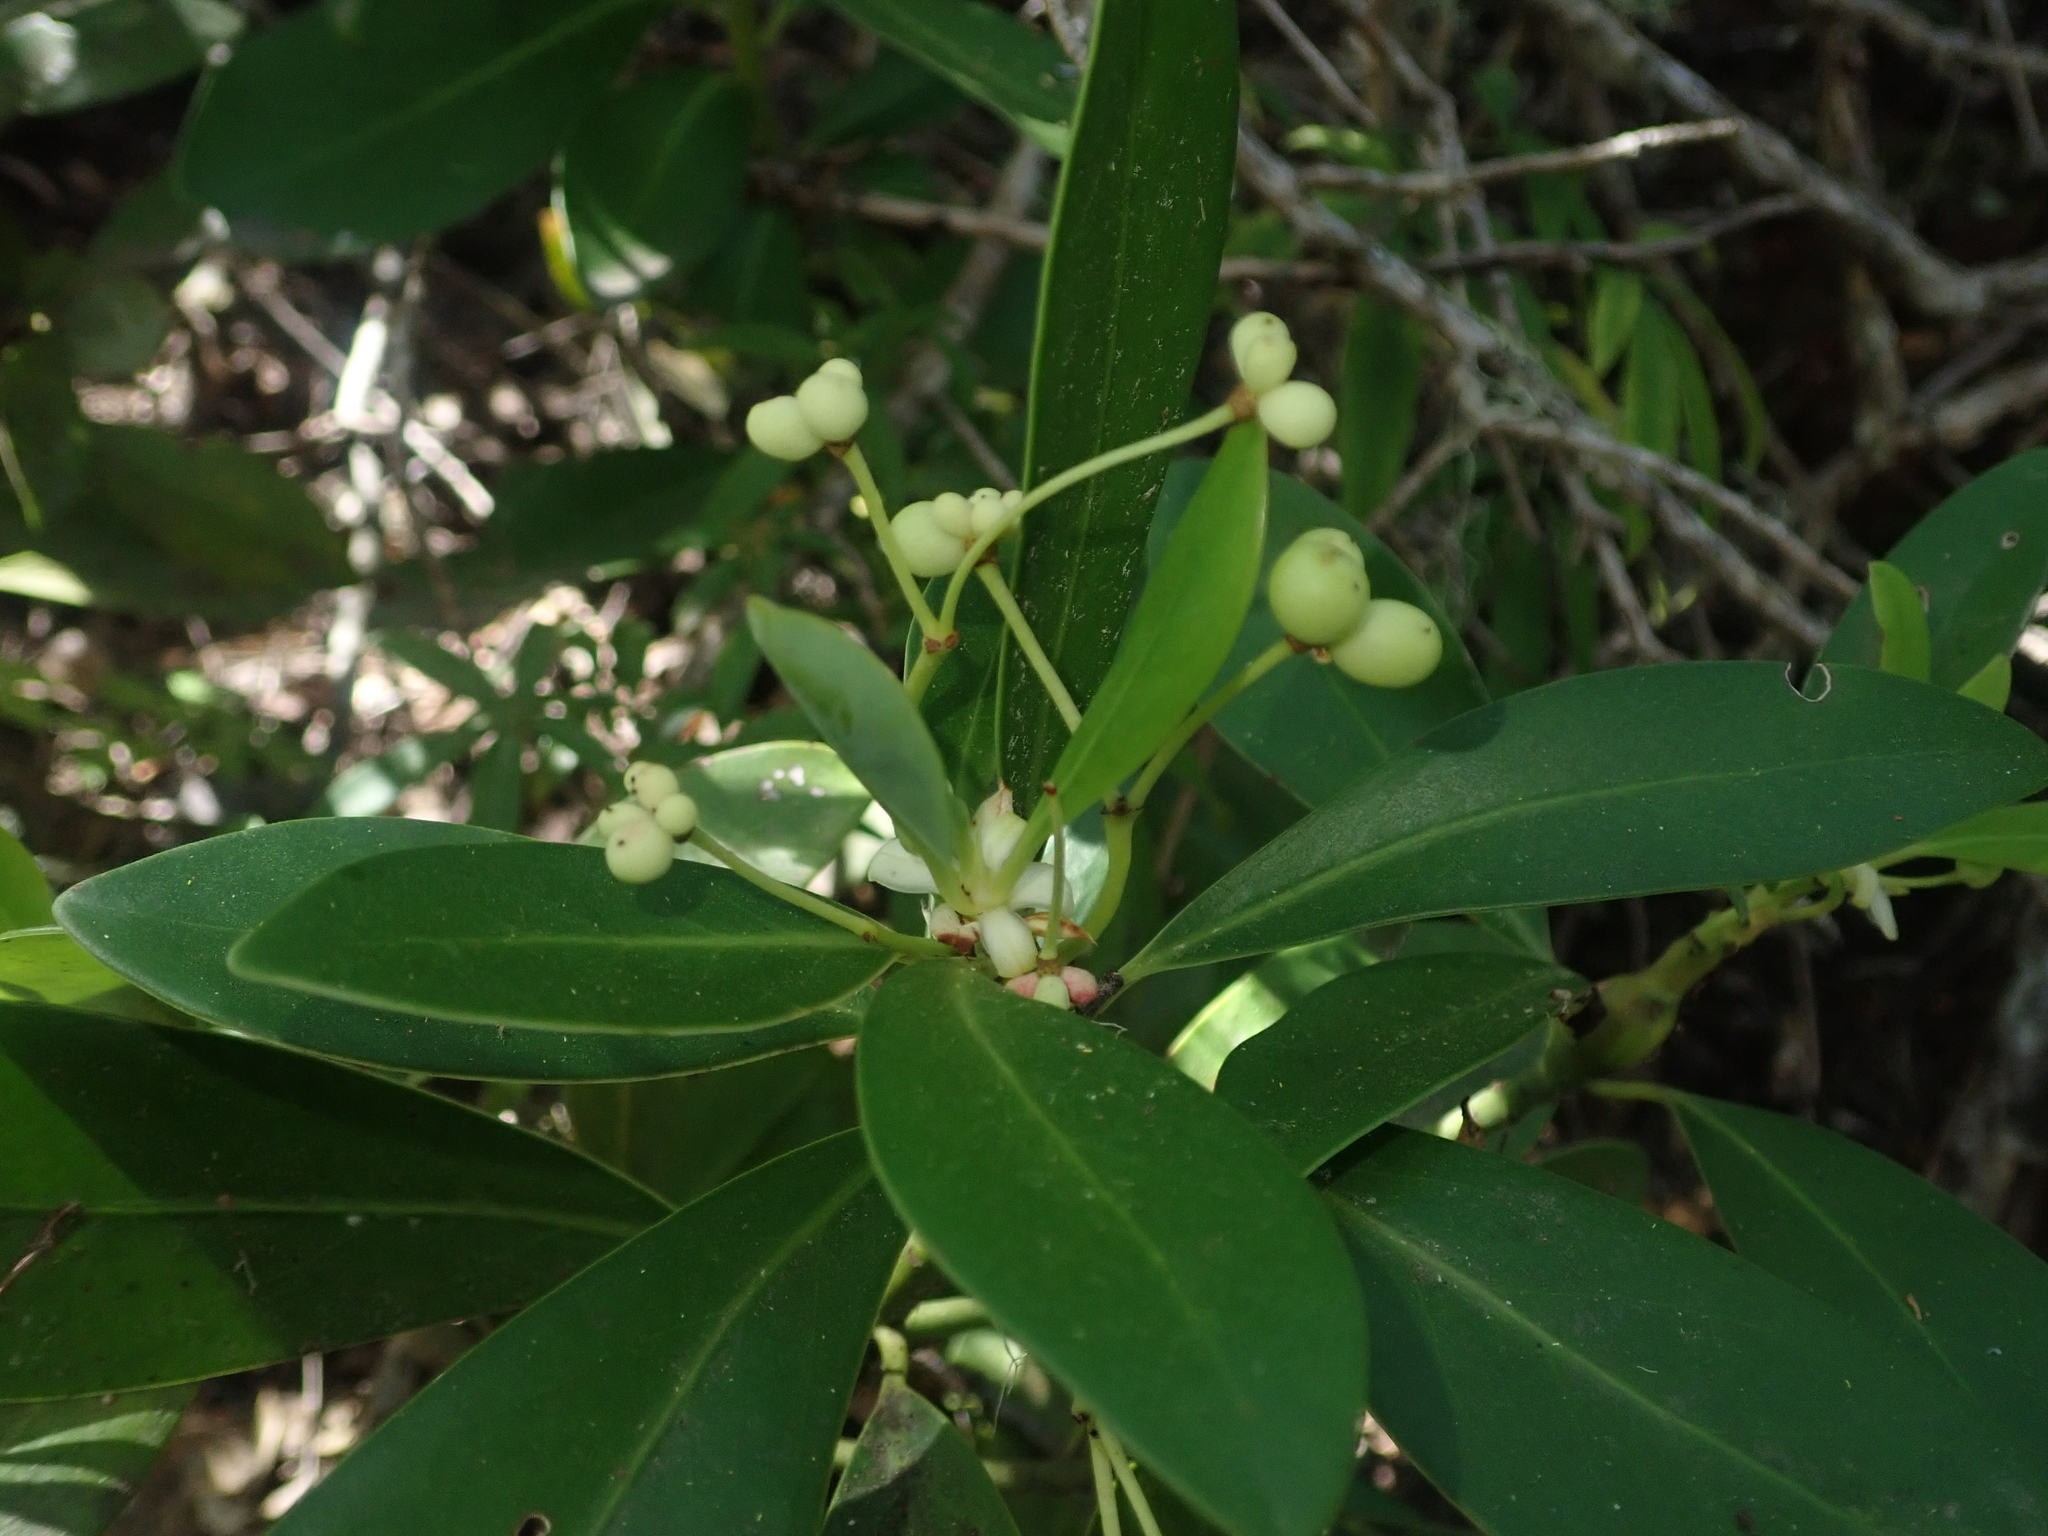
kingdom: Plantae
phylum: Tracheophyta
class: Magnoliopsida
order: Canellales
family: Winteraceae
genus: Drimys
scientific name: Drimys winteri
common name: Winter's-bark
